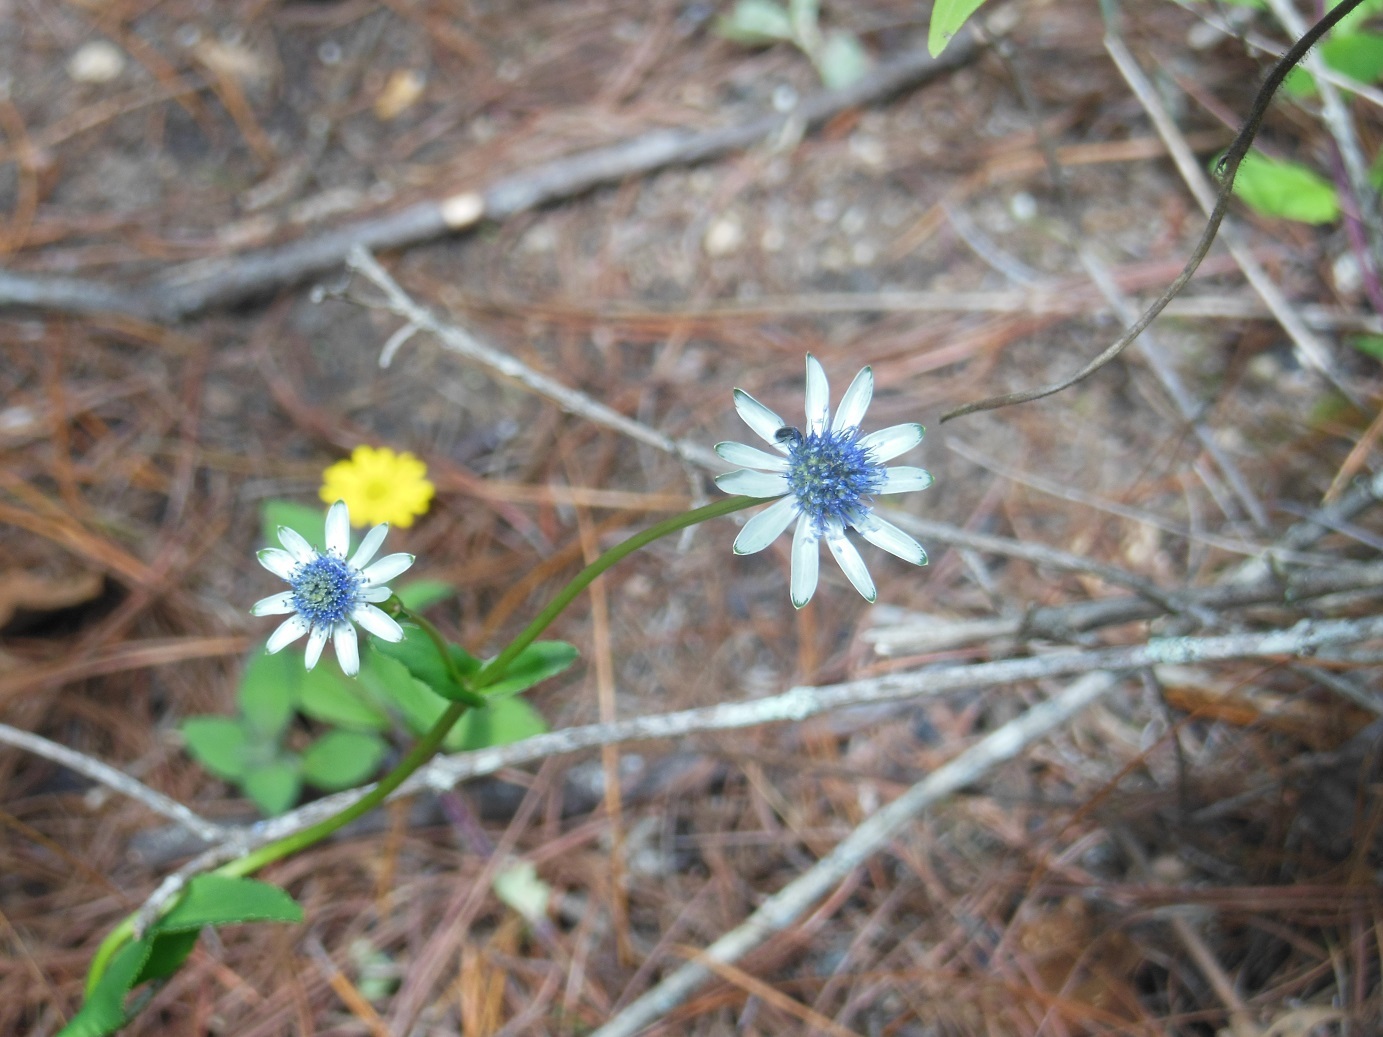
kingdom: Plantae
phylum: Tracheophyta
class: Magnoliopsida
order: Apiales
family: Apiaceae
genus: Eryngium
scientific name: Eryngium scaposum
